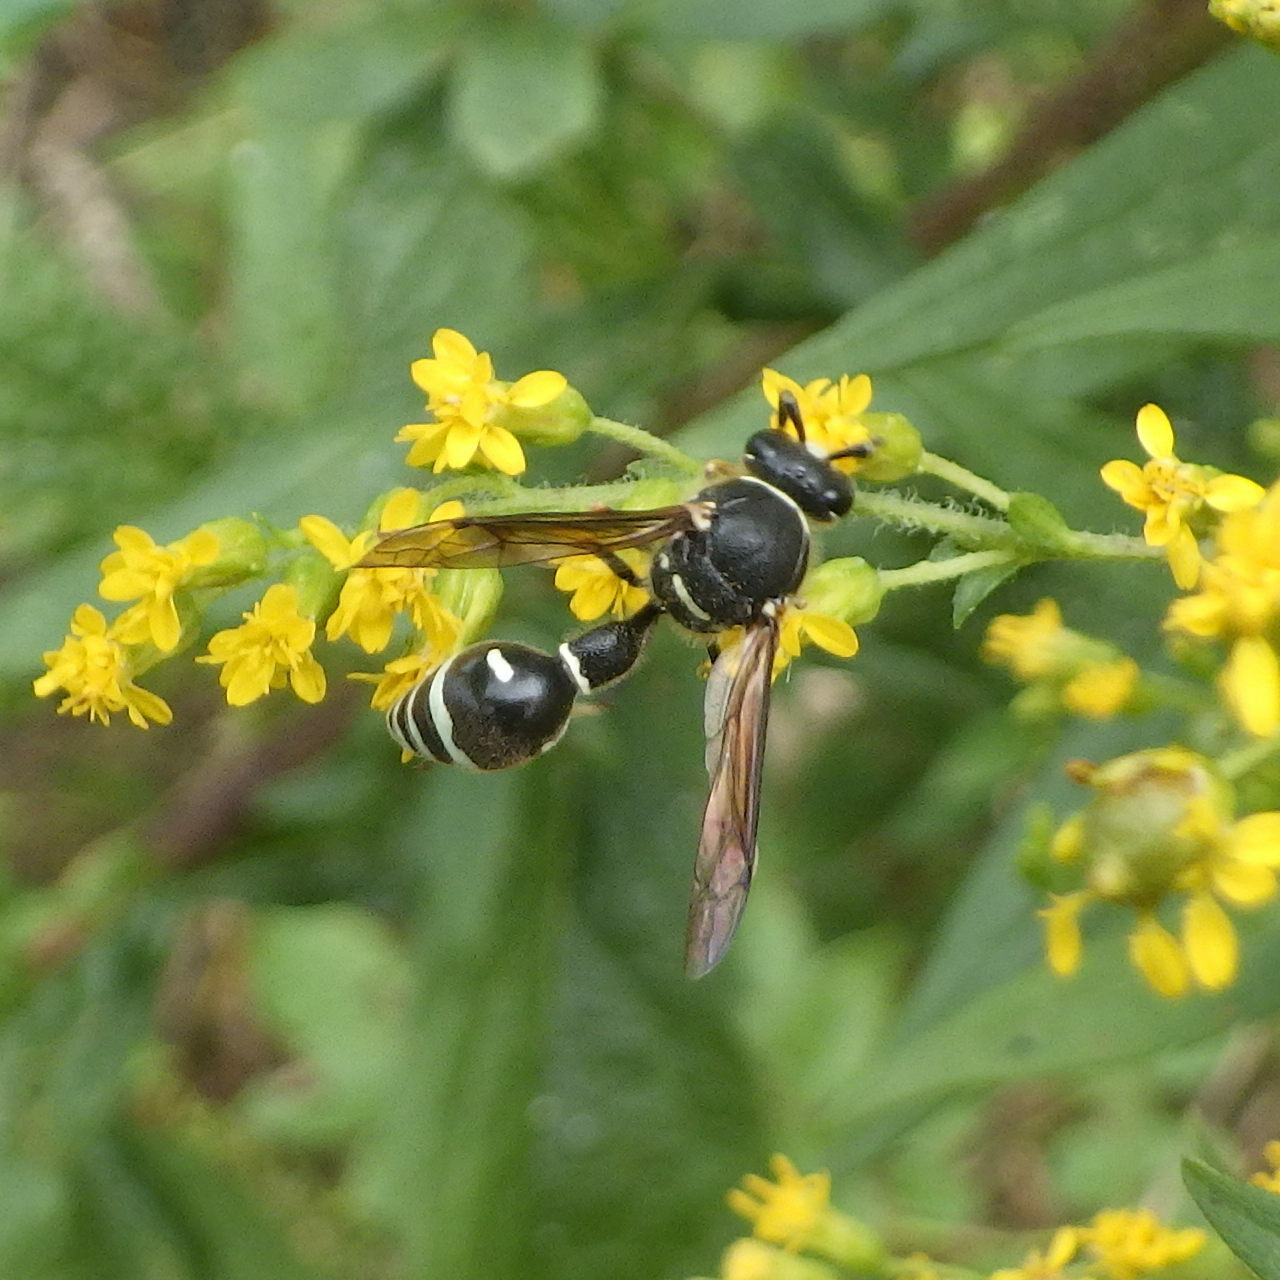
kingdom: Animalia
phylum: Arthropoda
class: Insecta
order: Hymenoptera
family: Vespidae
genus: Eumenes
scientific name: Eumenes crucifera
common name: Cross potter wasp
